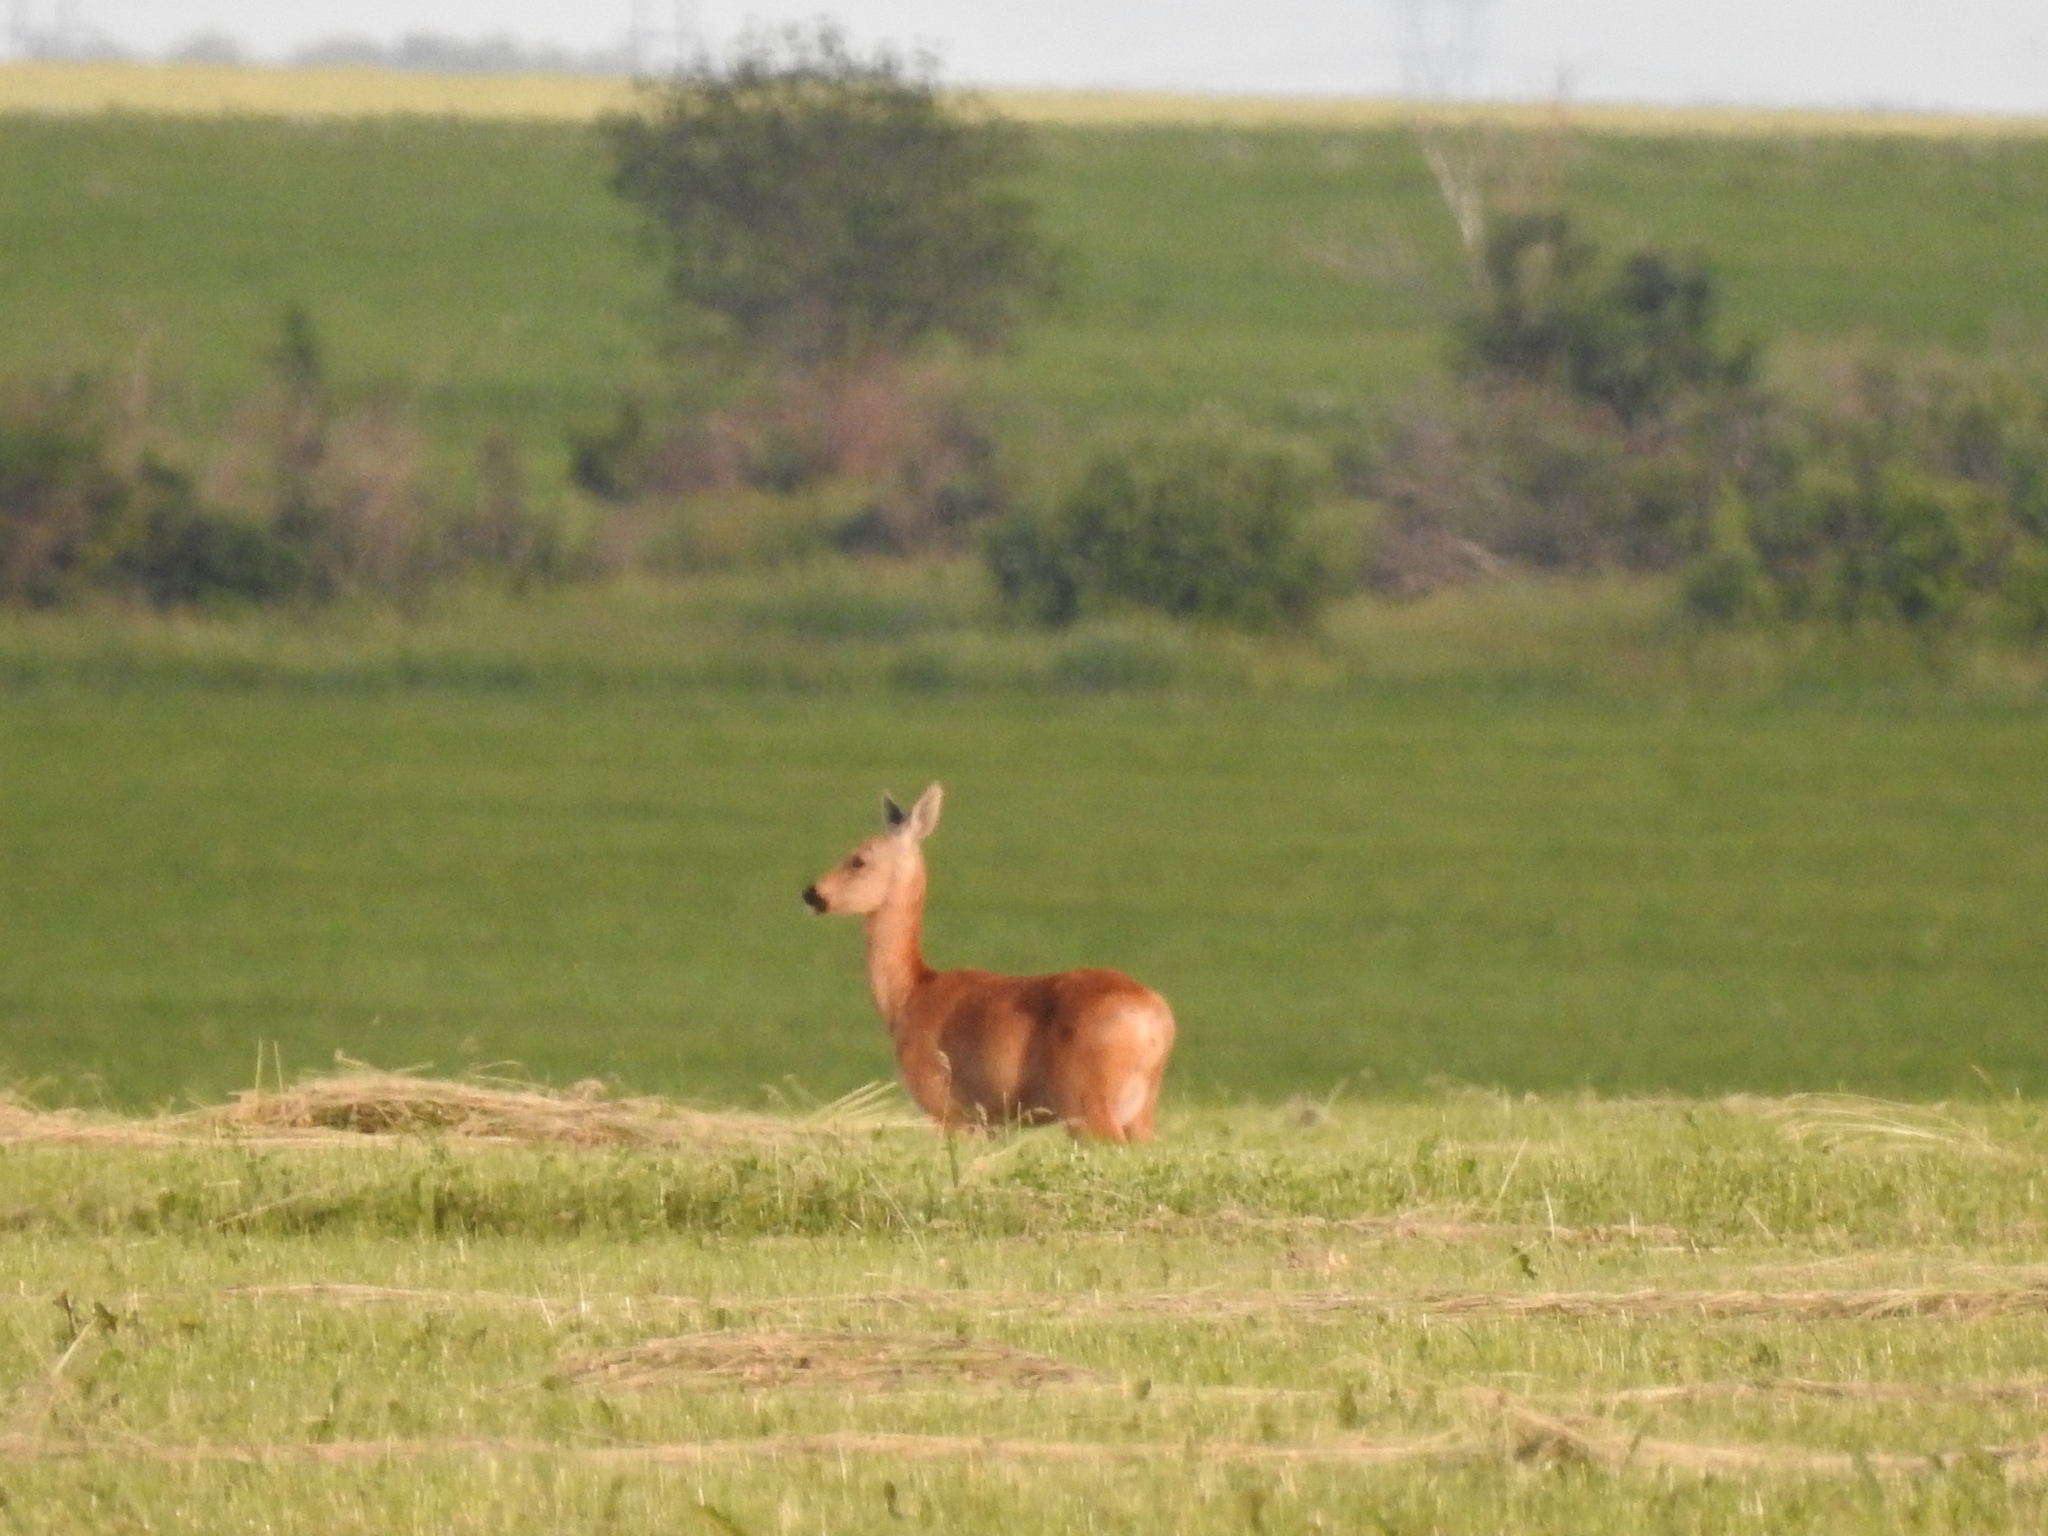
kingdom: Animalia
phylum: Chordata
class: Mammalia
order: Artiodactyla
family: Cervidae
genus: Capreolus
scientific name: Capreolus pygargus
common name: Siberian roe
